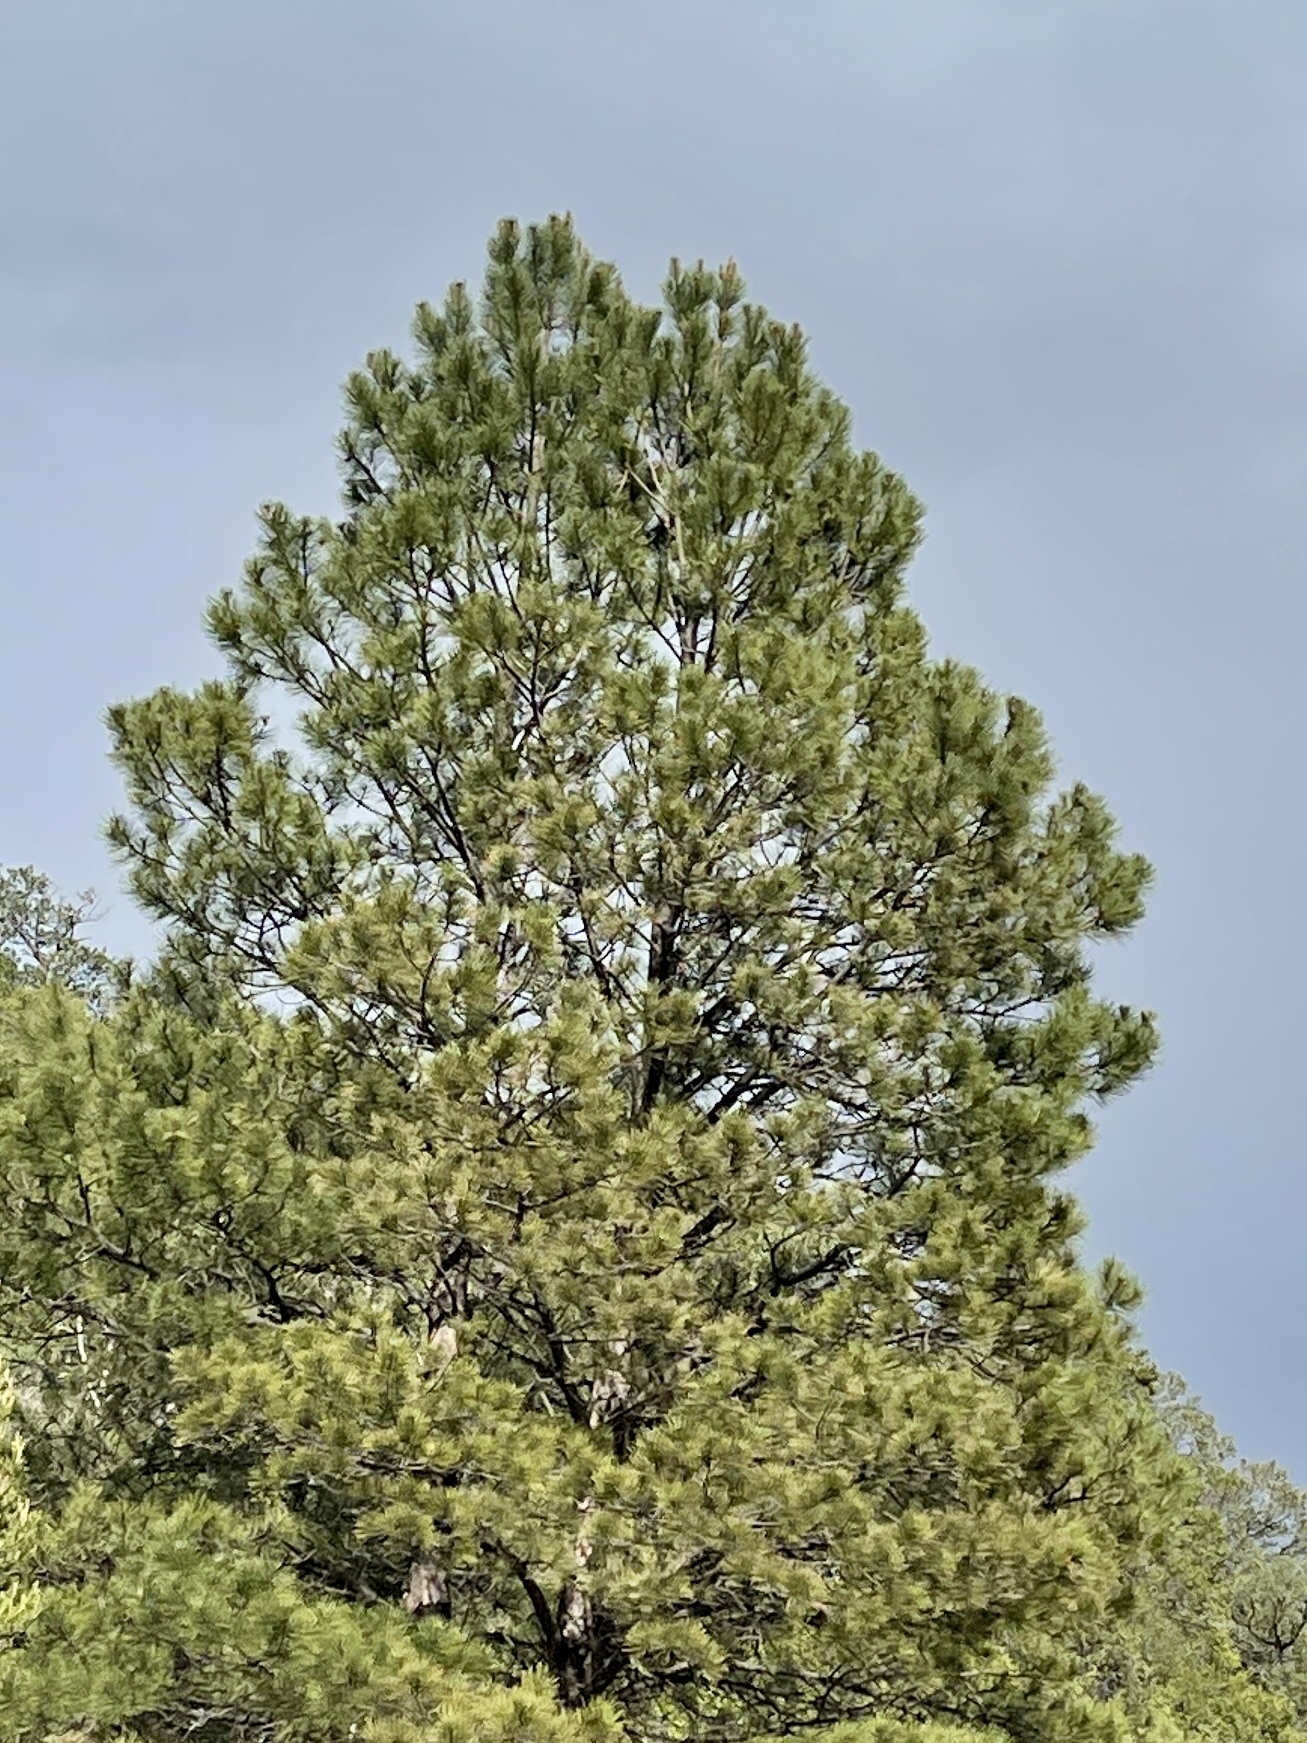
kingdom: Plantae
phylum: Tracheophyta
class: Pinopsida
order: Pinales
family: Pinaceae
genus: Pinus
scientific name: Pinus ponderosa
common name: Western yellow-pine
